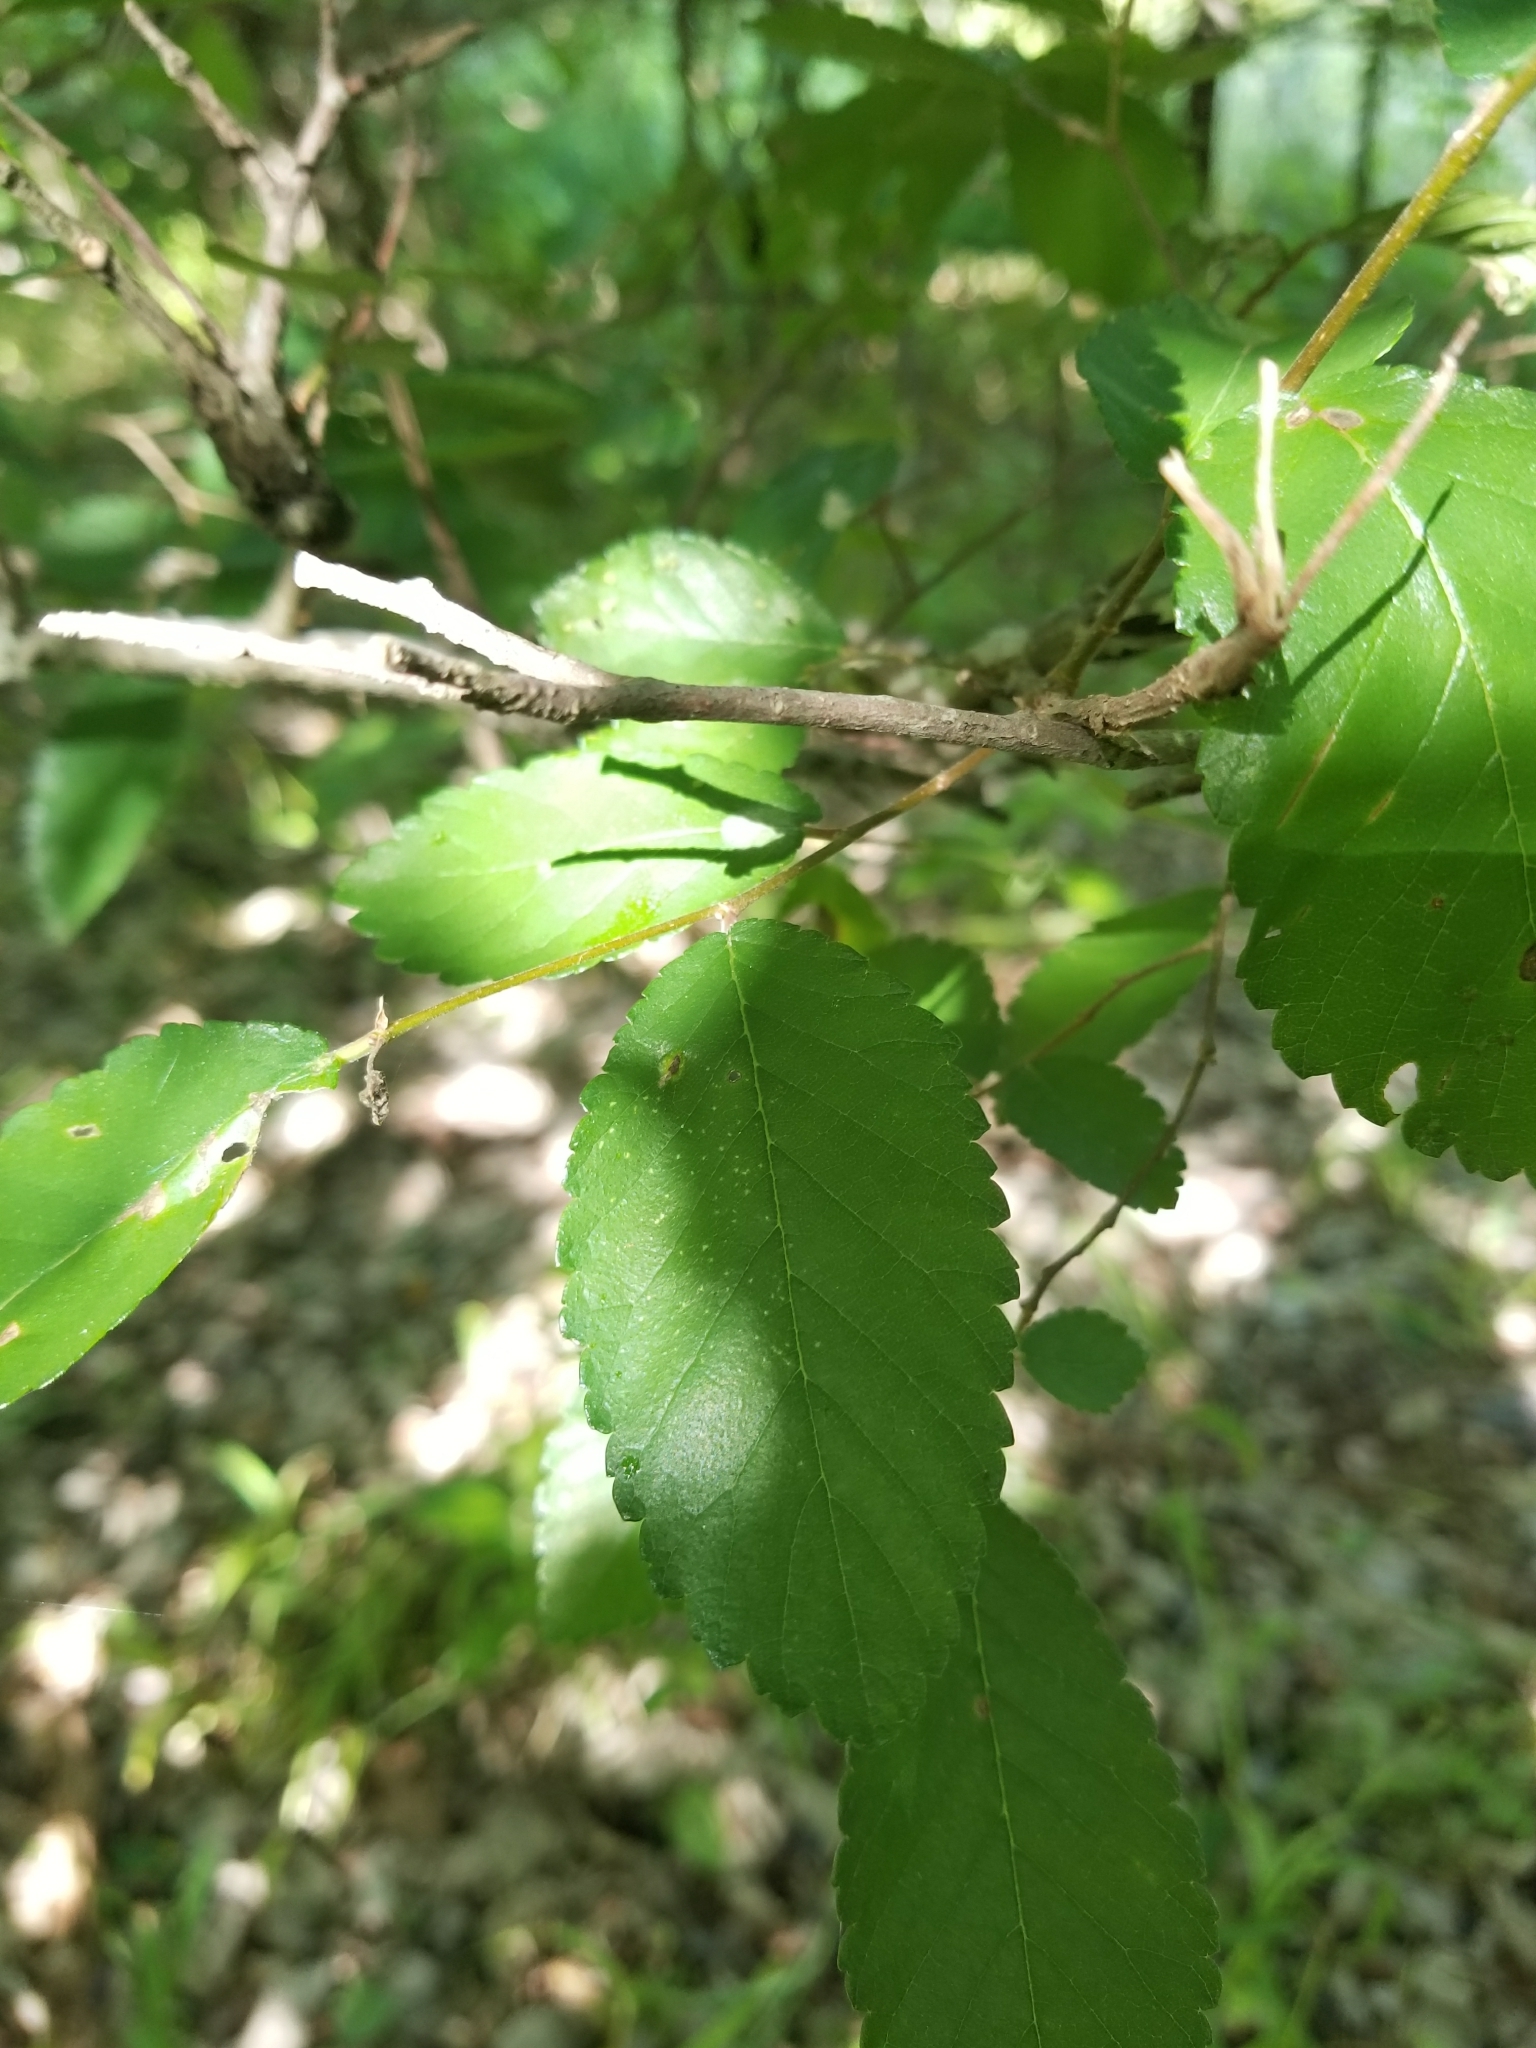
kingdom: Plantae
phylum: Tracheophyta
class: Magnoliopsida
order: Rosales
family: Ulmaceae
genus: Ulmus
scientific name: Ulmus crassifolia
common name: Basket elm
